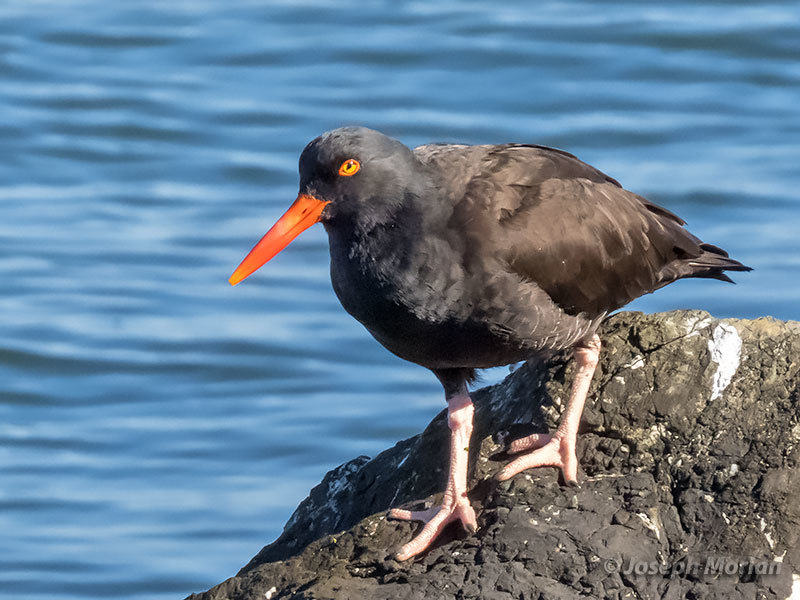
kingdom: Animalia
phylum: Chordata
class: Aves
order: Charadriiformes
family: Haematopodidae
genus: Haematopus
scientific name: Haematopus bachmani
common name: Black oystercatcher
